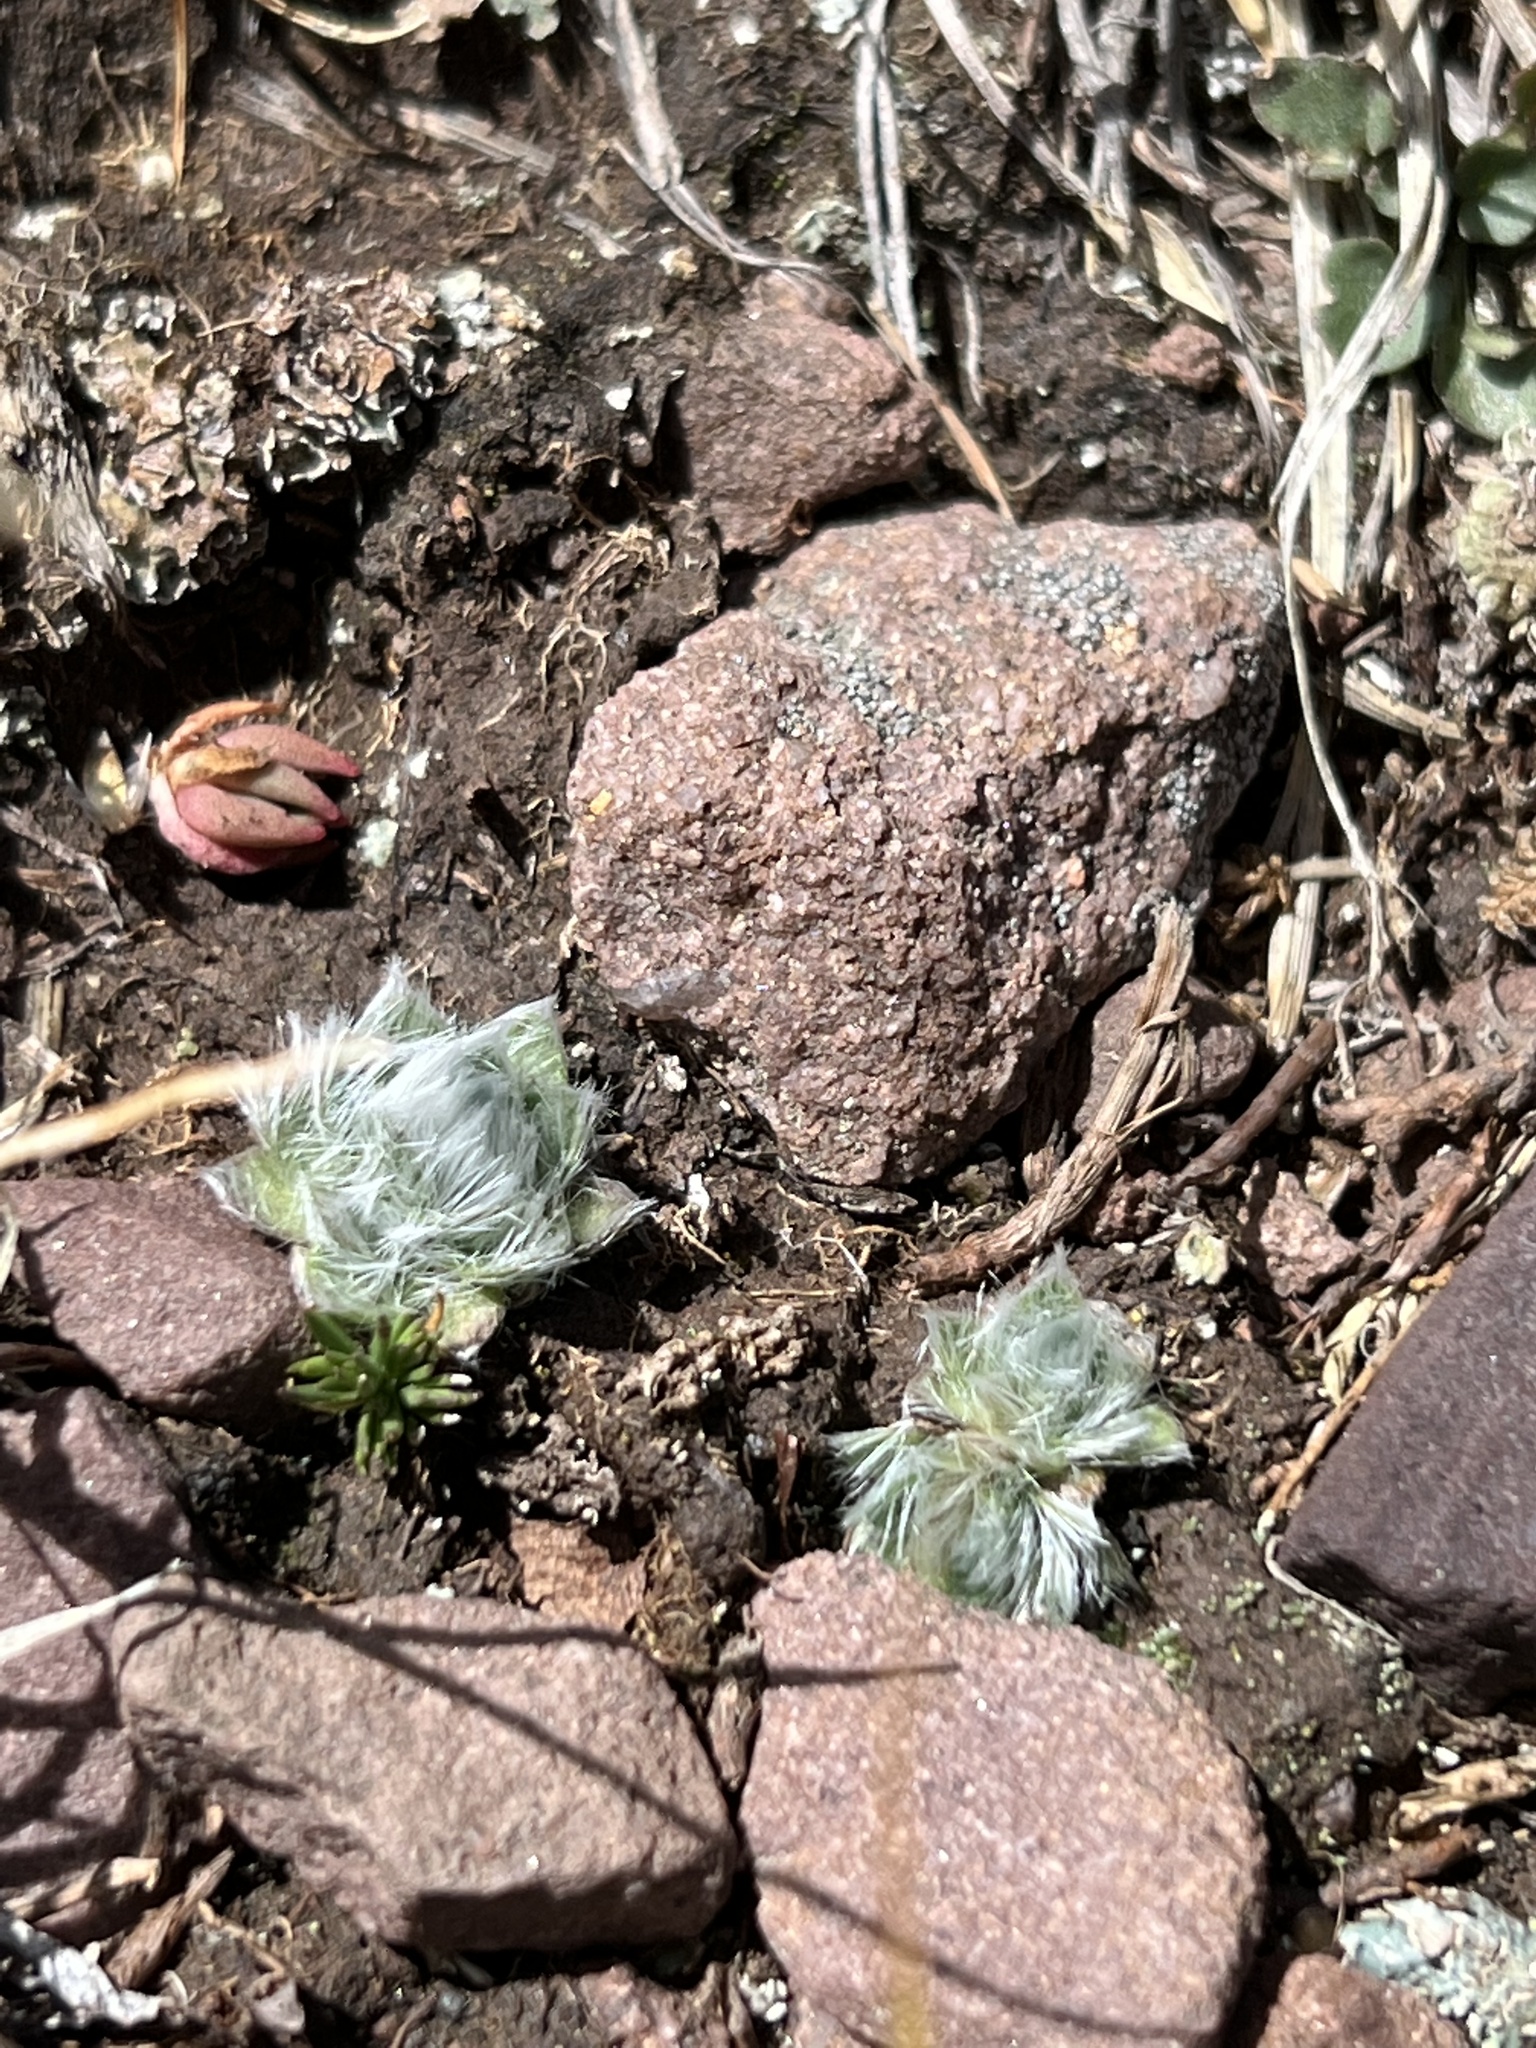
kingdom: Plantae
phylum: Tracheophyta
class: Magnoliopsida
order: Boraginales
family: Boraginaceae
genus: Eritrichium
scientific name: Eritrichium argenteum
